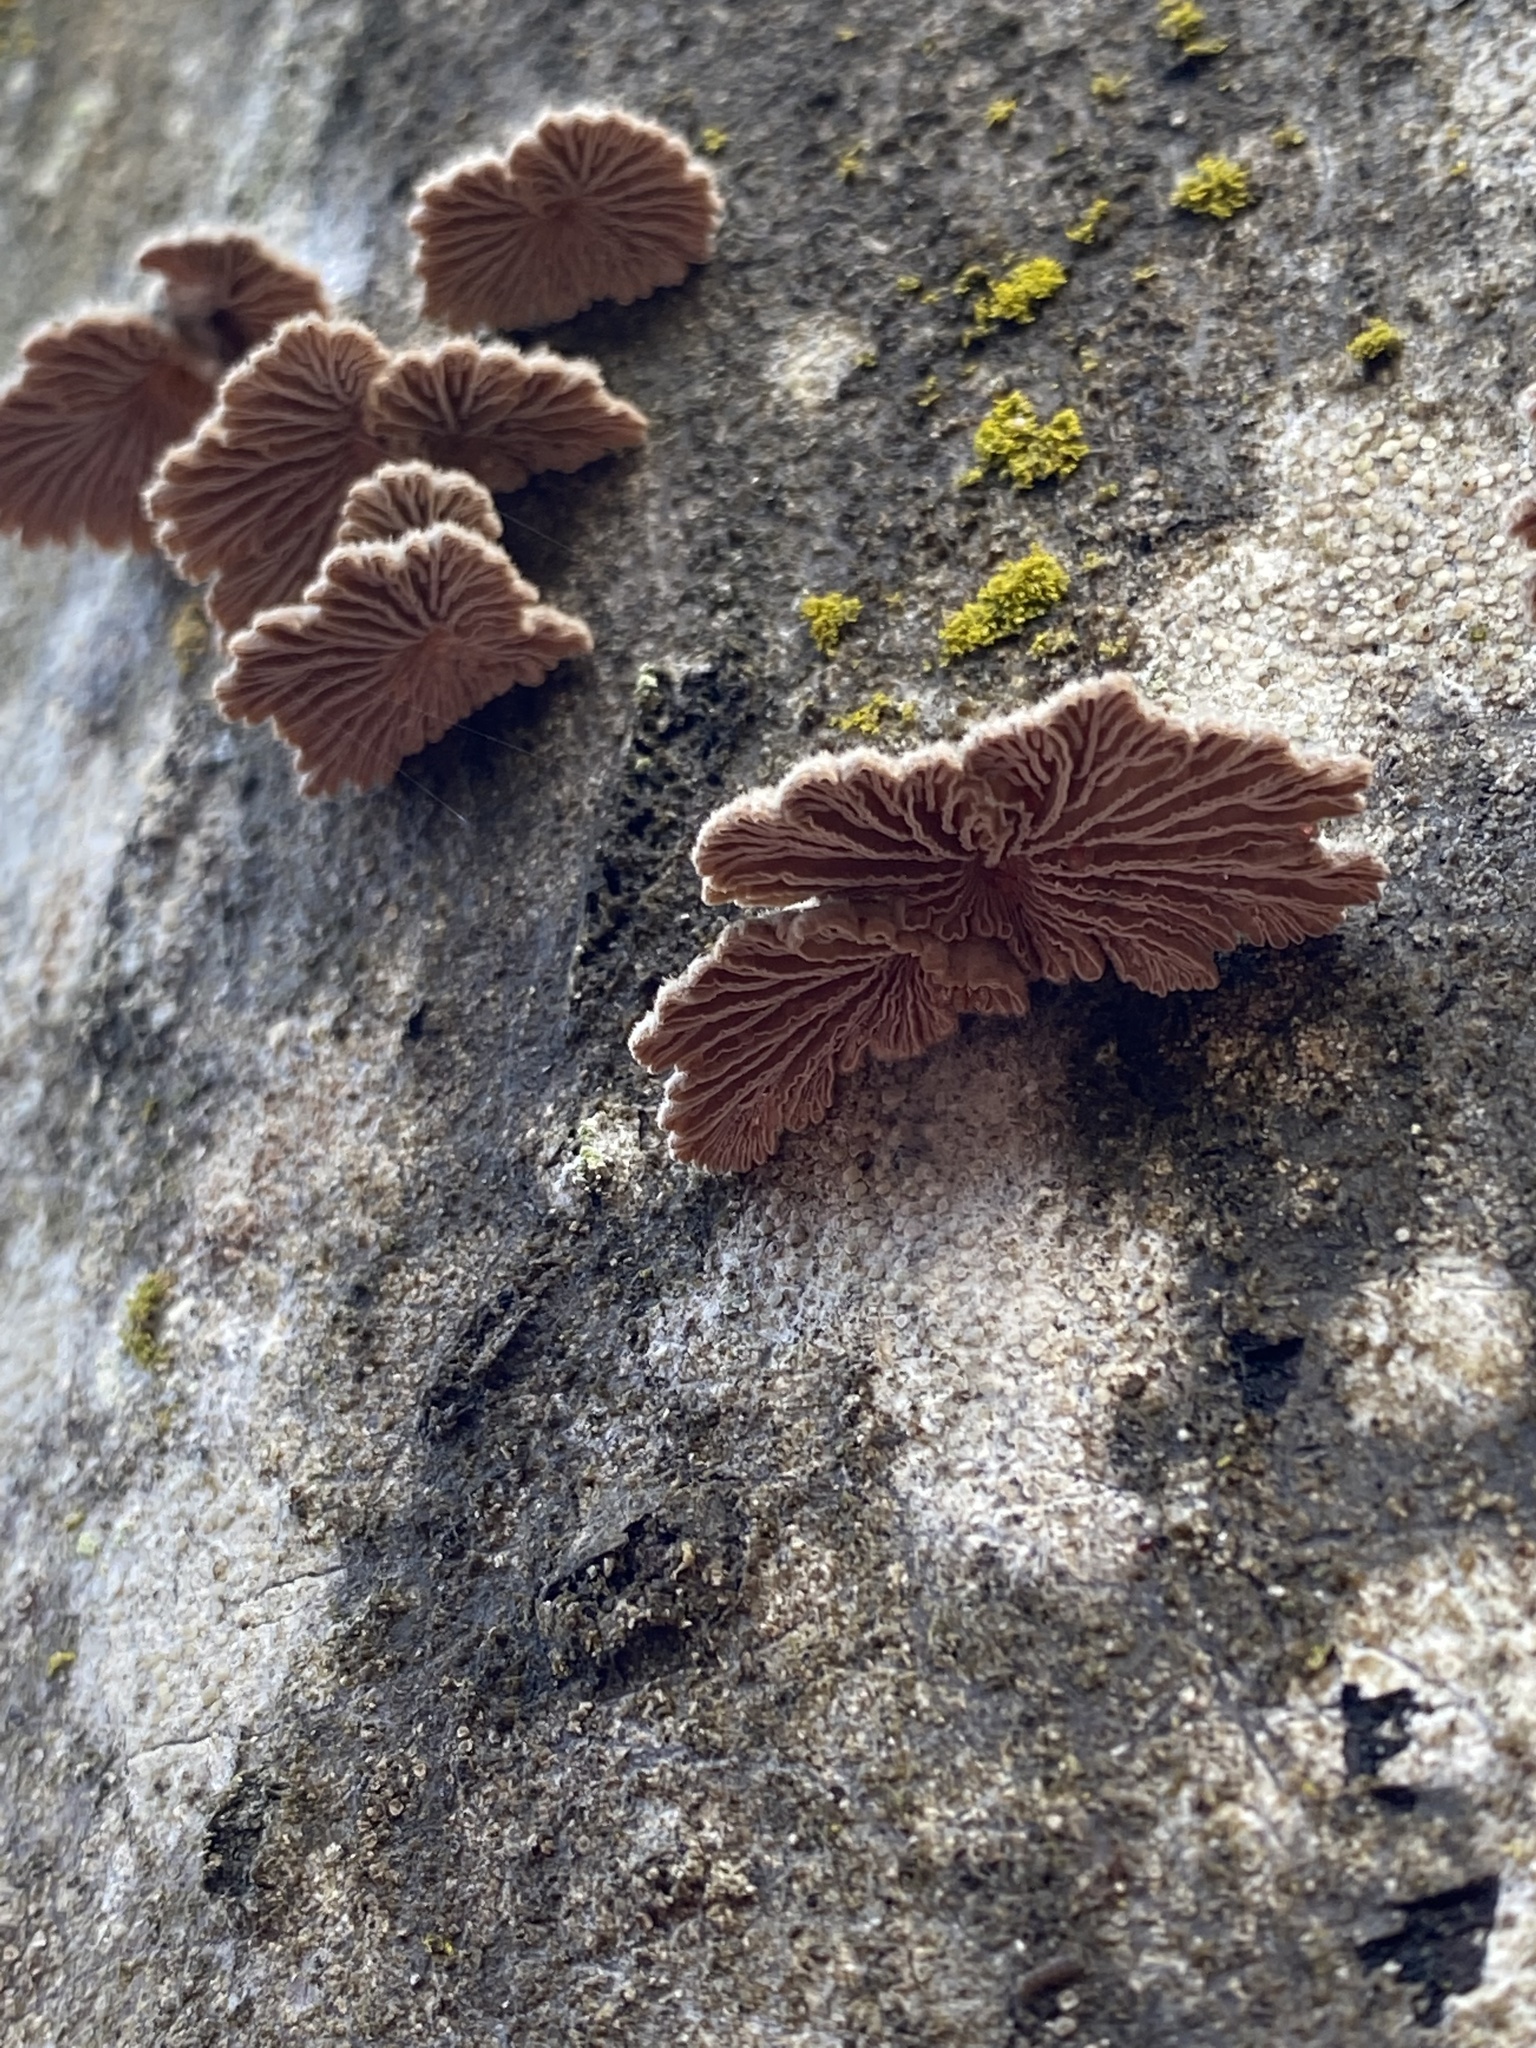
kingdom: Fungi
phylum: Basidiomycota
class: Agaricomycetes
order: Agaricales
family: Schizophyllaceae
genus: Schizophyllum
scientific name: Schizophyllum commune
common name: Common porecrust
